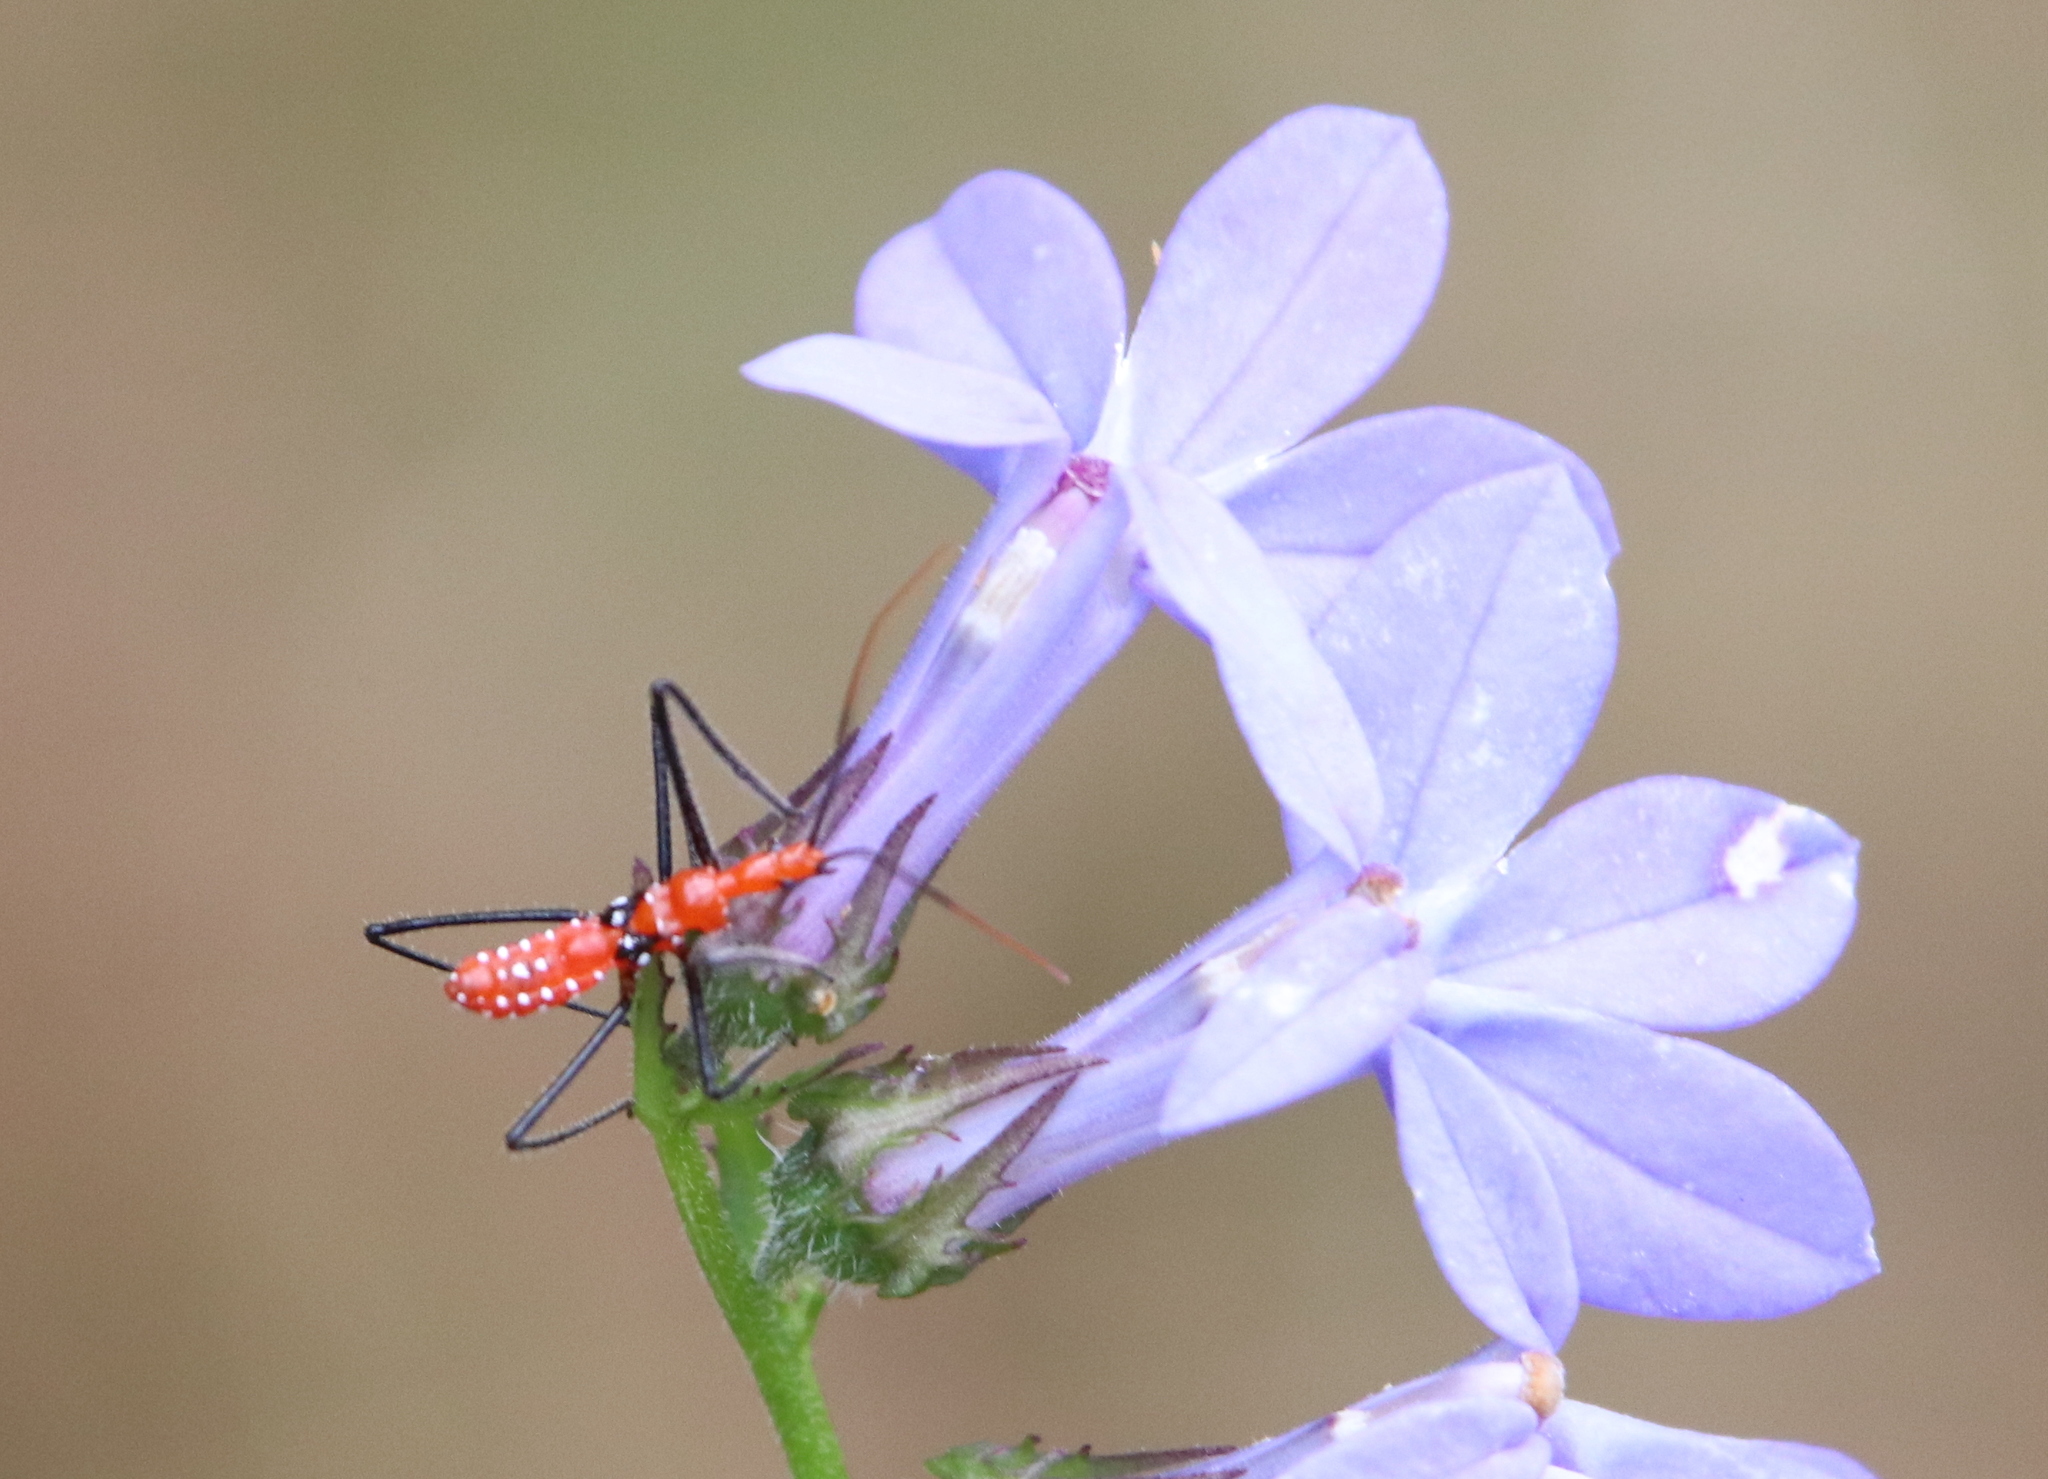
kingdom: Animalia
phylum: Arthropoda
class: Insecta
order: Hemiptera
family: Reduviidae
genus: Zelus
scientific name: Zelus longipes
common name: Milkweed assassin bug
